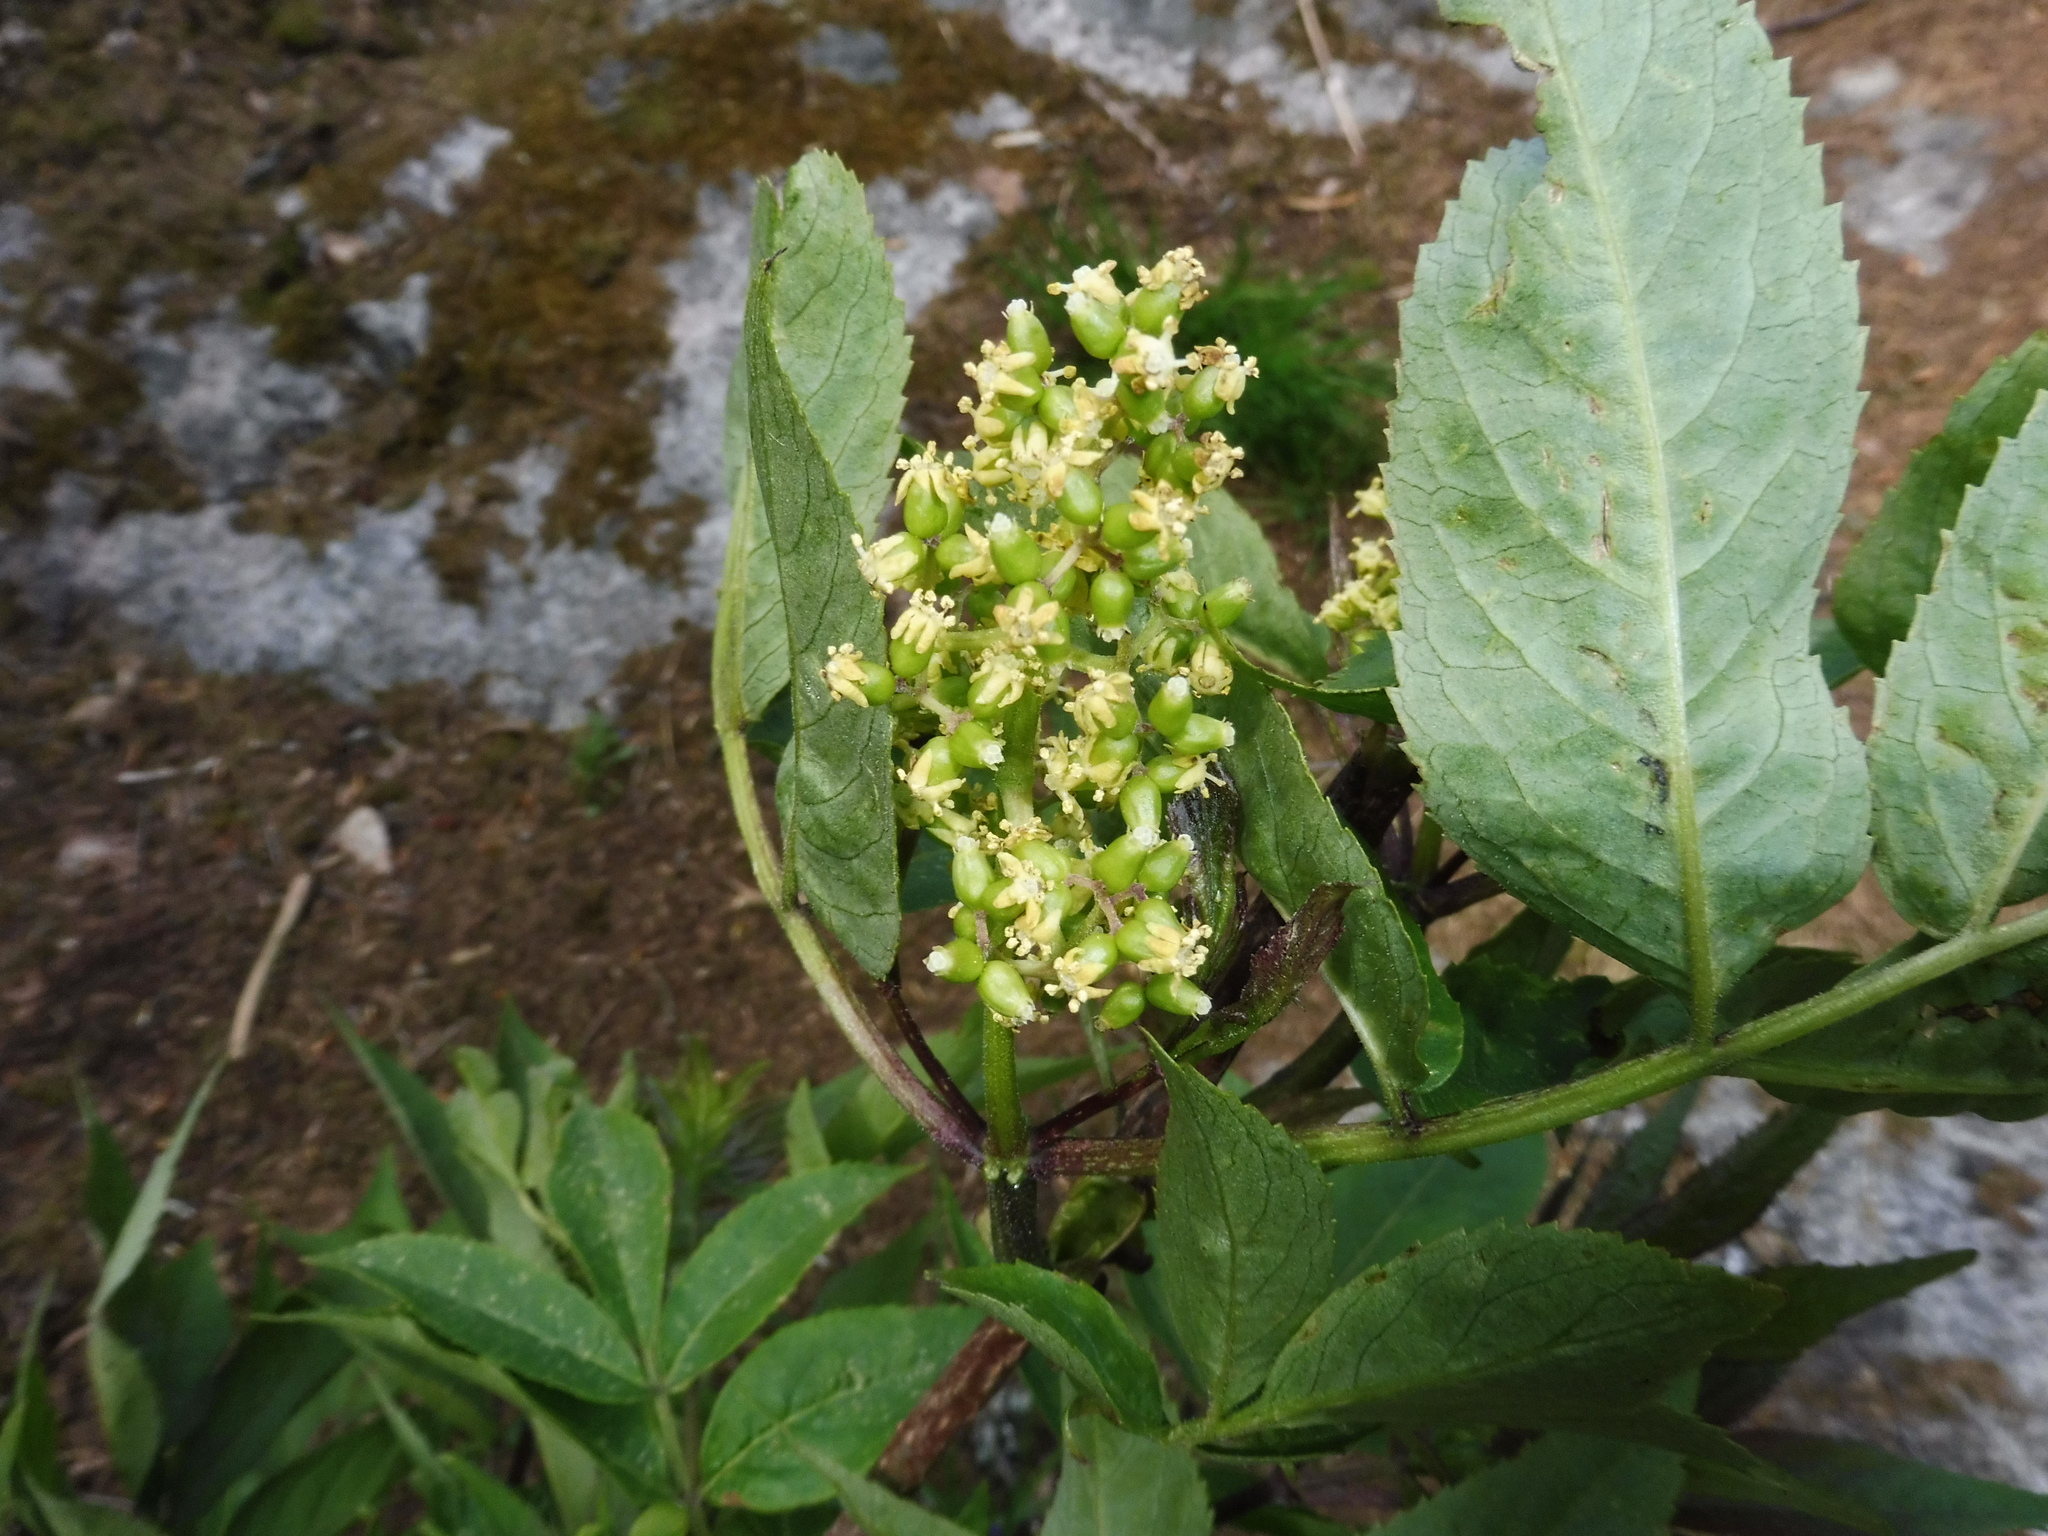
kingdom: Plantae
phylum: Tracheophyta
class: Magnoliopsida
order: Dipsacales
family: Viburnaceae
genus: Sambucus
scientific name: Sambucus racemosa
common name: Red-berried elder
